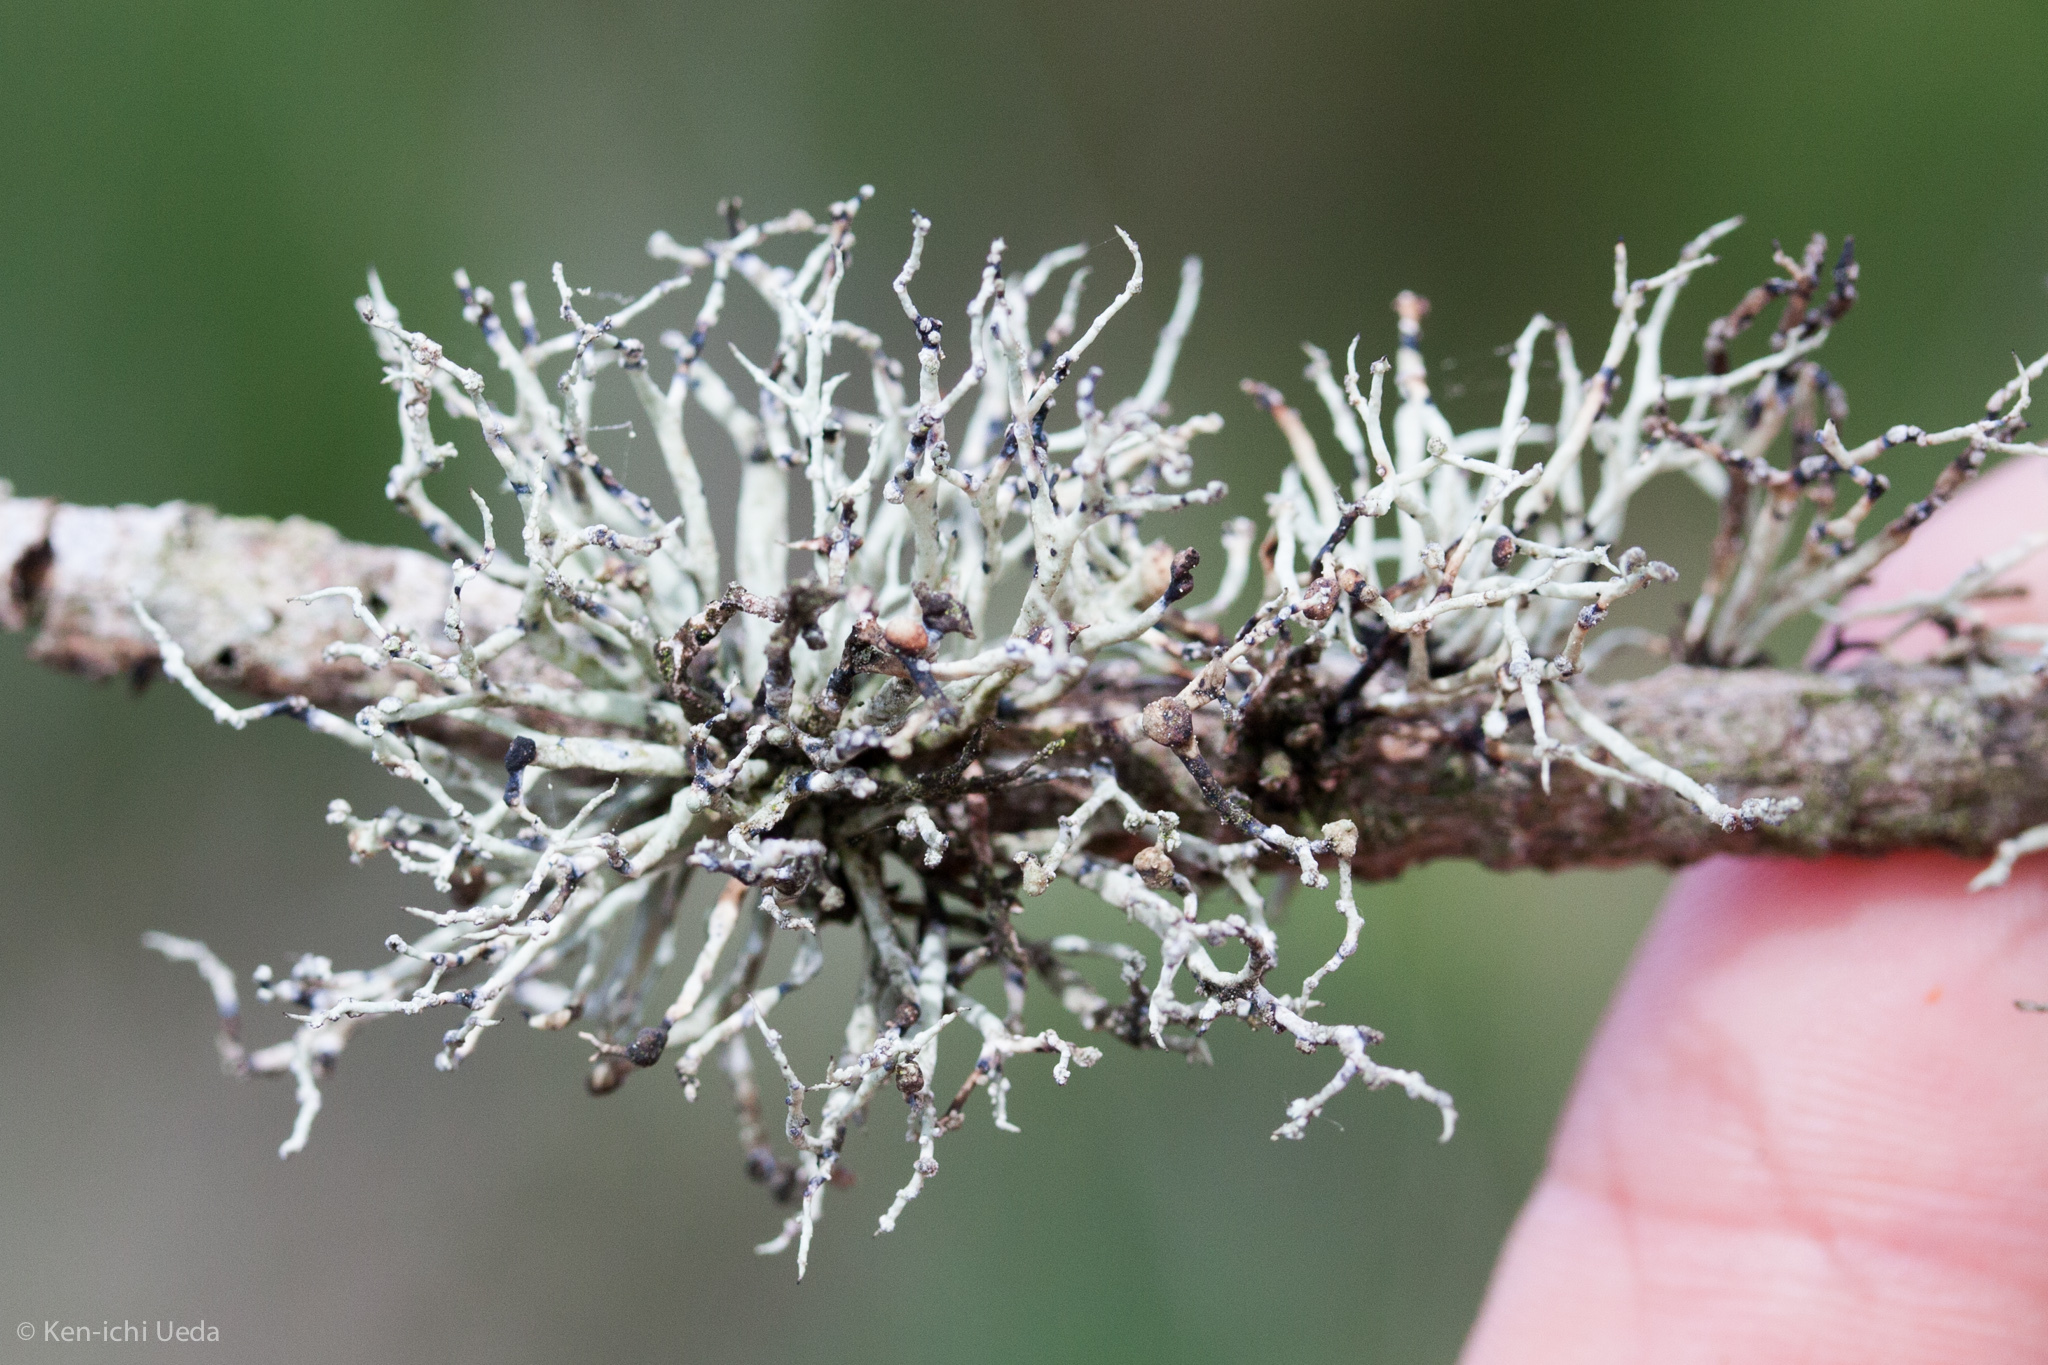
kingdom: Fungi
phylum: Ascomycota
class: Lecanoromycetes
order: Lecanorales
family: Ramalinaceae
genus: Niebla
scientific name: Niebla cephalota
